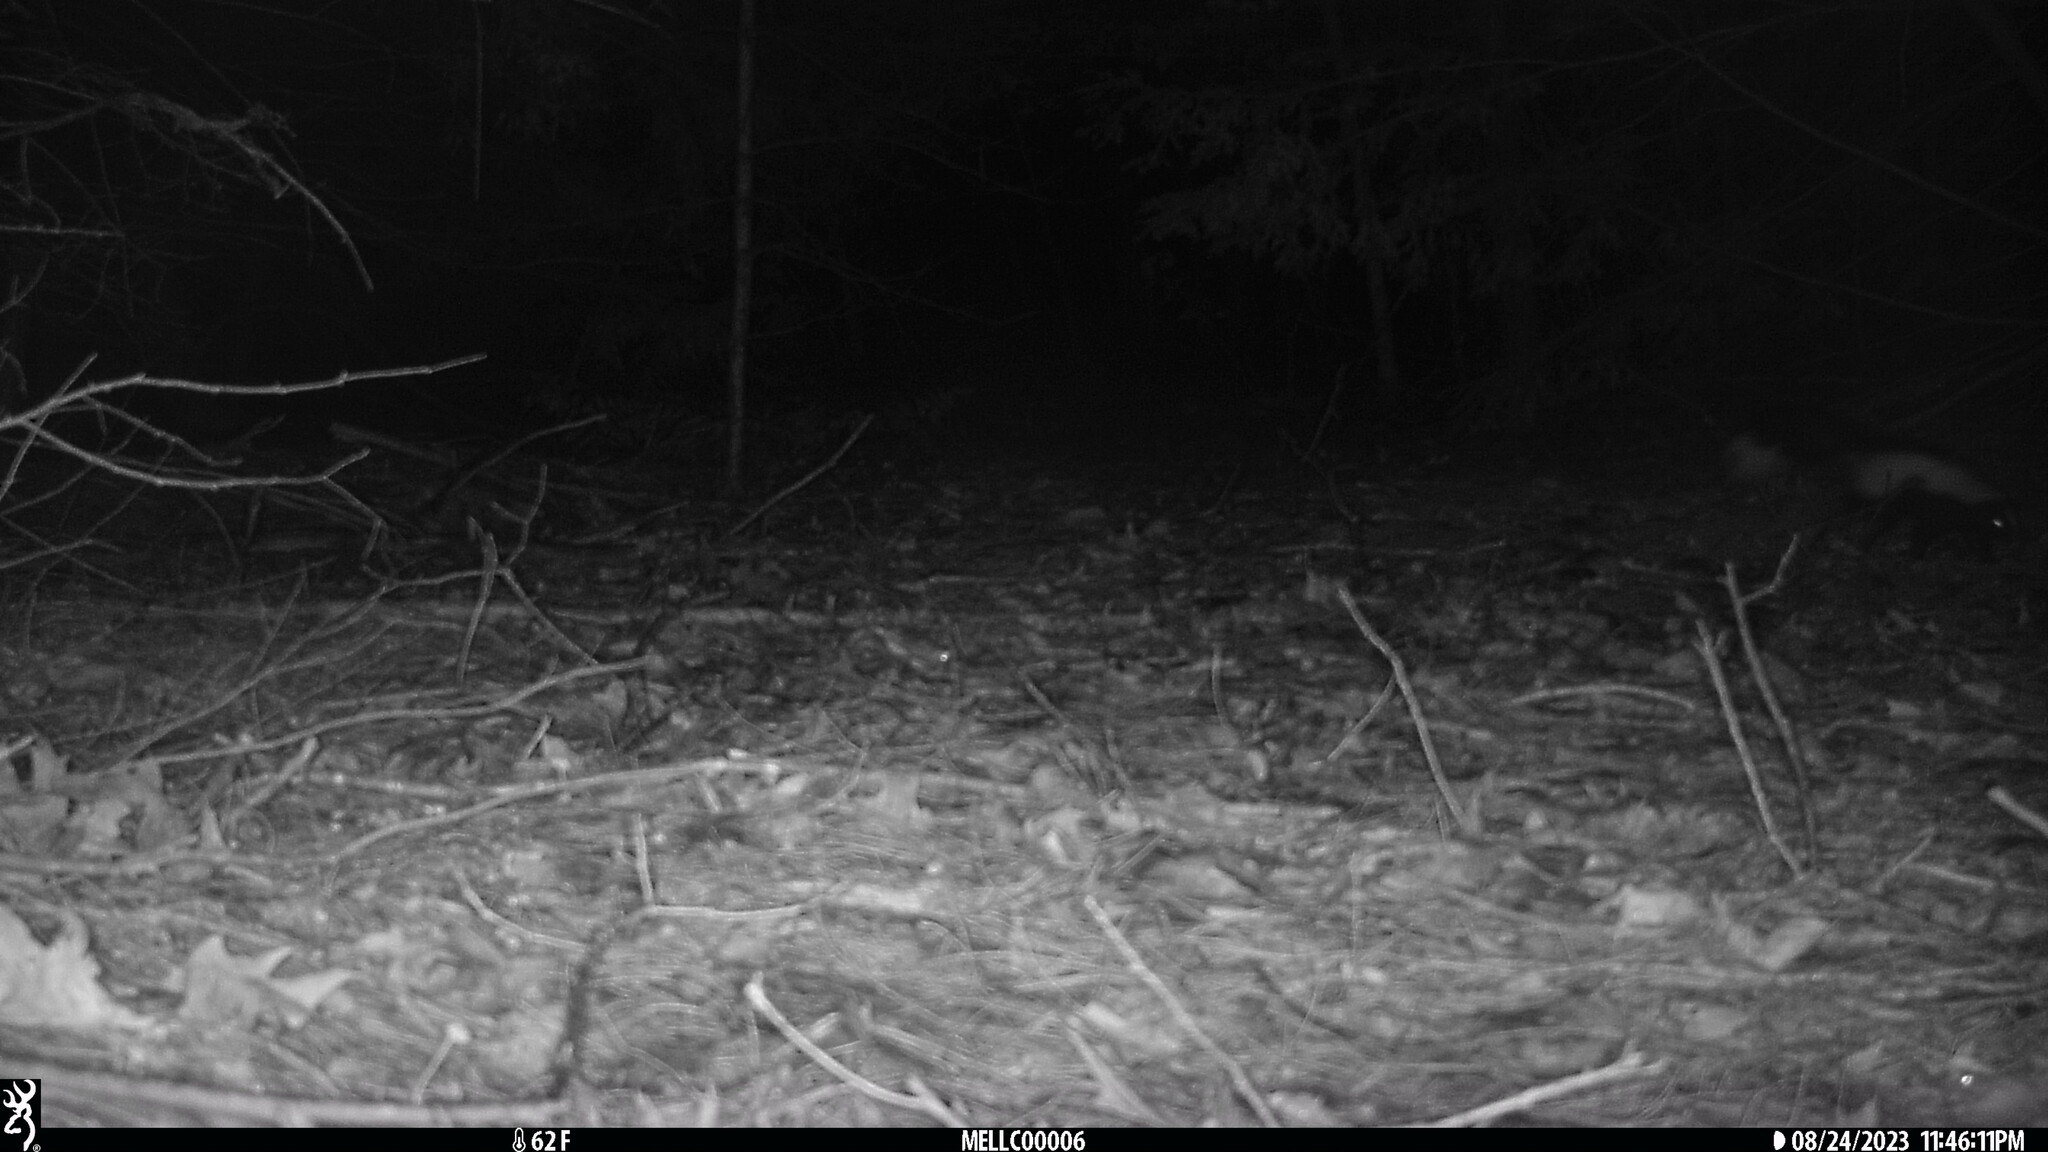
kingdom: Animalia
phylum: Chordata
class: Mammalia
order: Carnivora
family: Mephitidae
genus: Mephitis
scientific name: Mephitis mephitis
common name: Striped skunk
